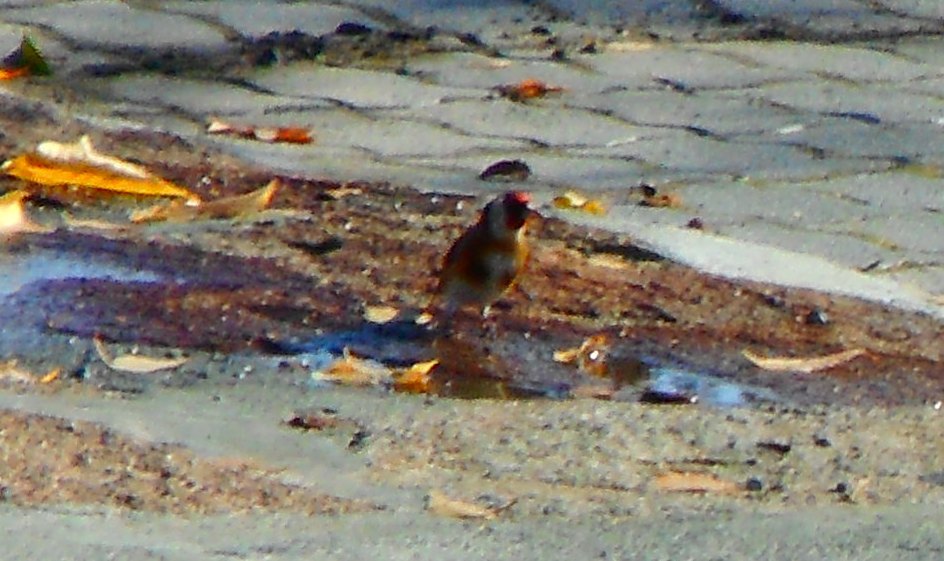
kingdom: Animalia
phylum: Chordata
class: Aves
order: Passeriformes
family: Fringillidae
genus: Carduelis
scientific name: Carduelis carduelis
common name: European goldfinch
